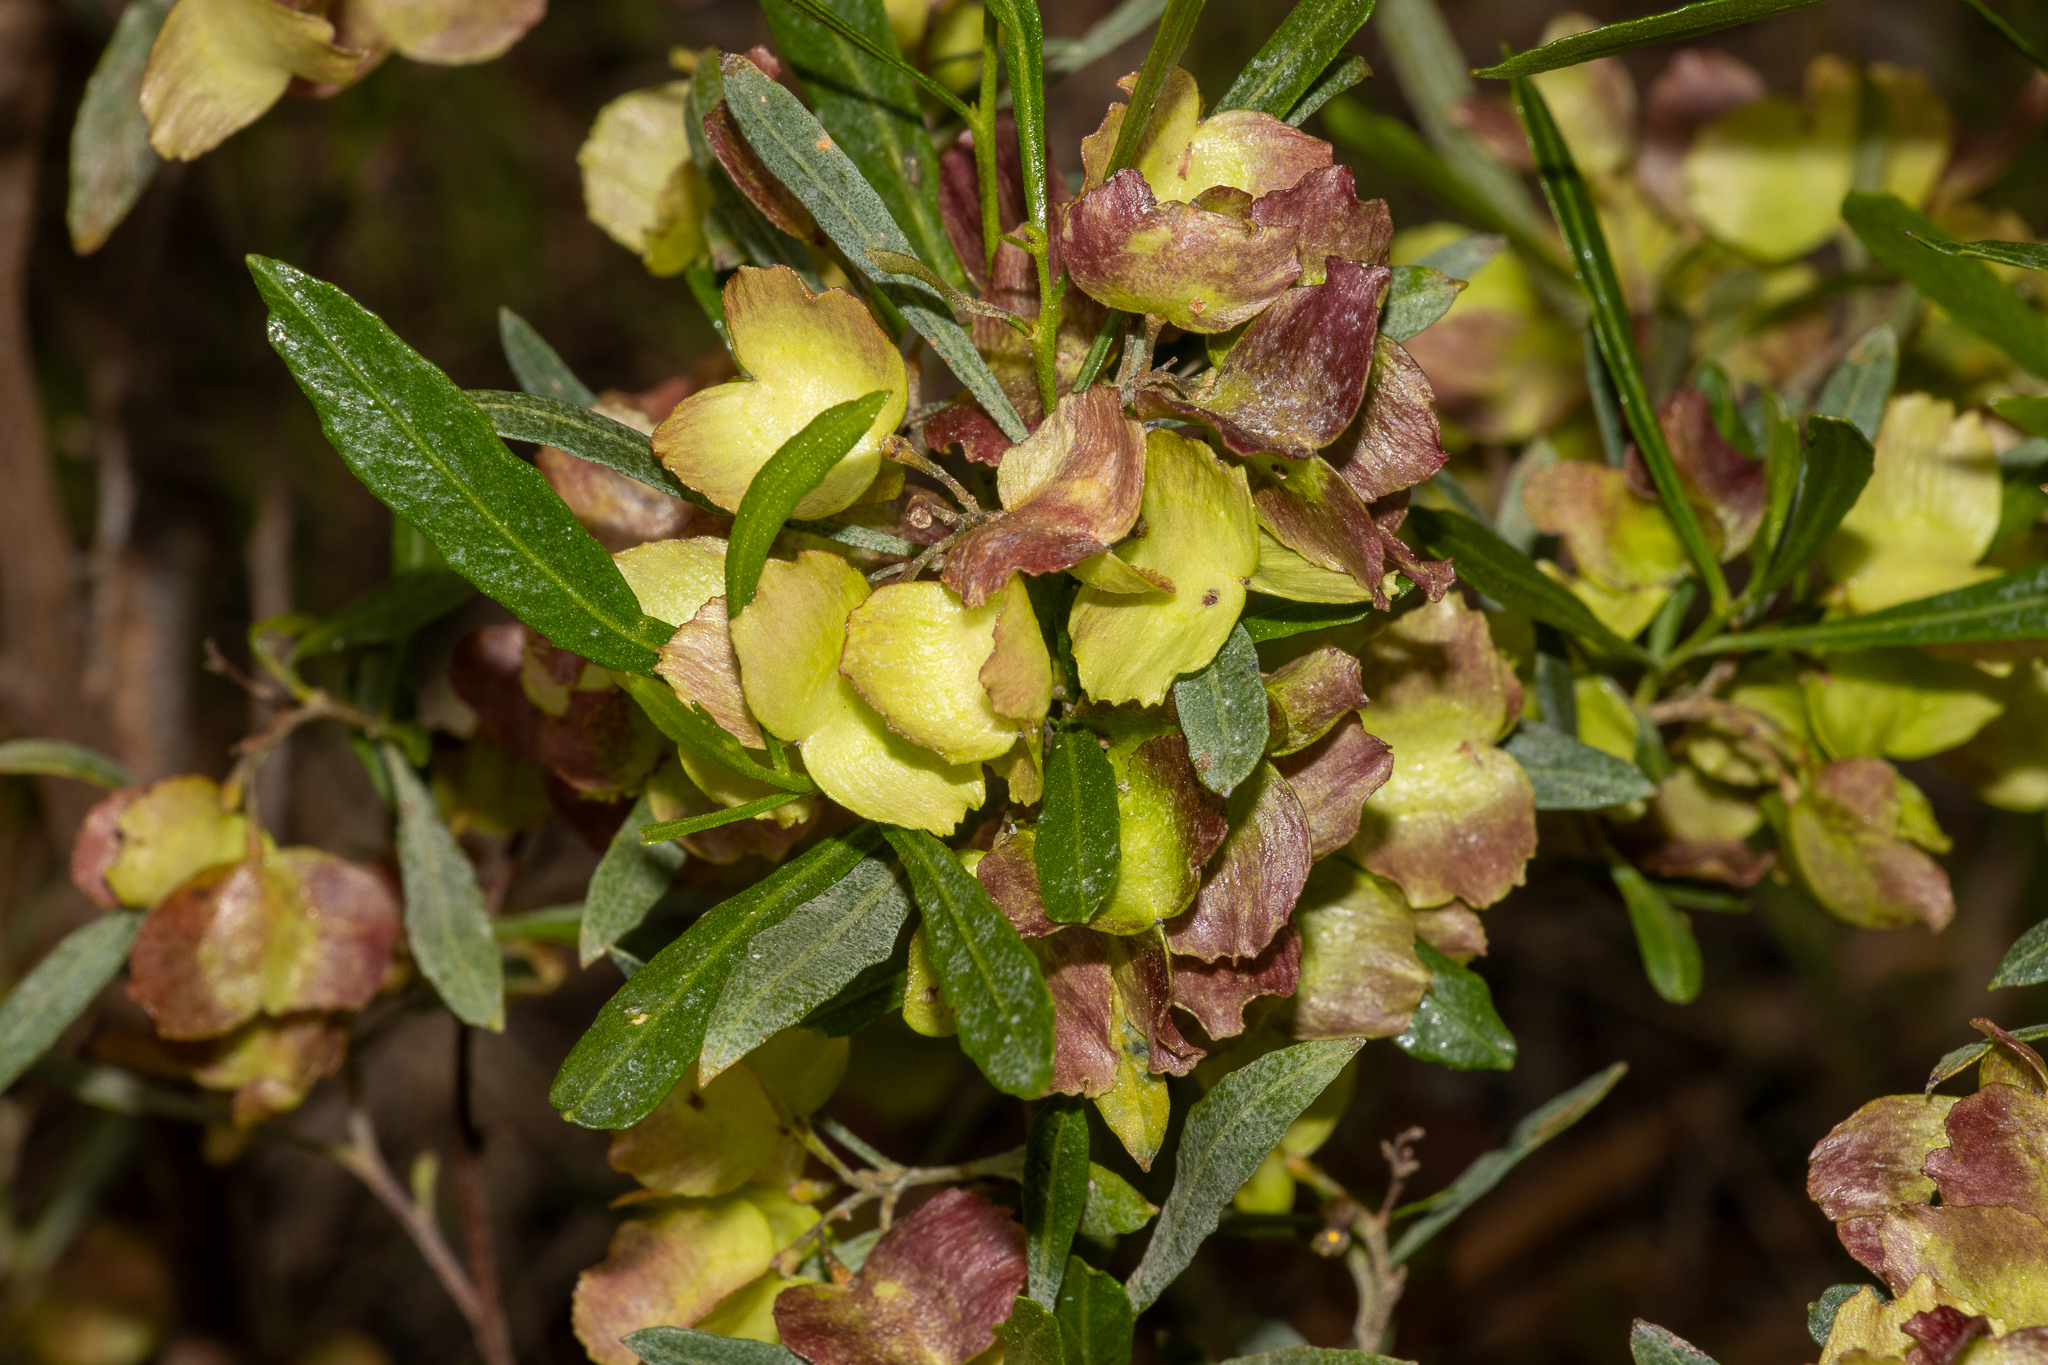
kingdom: Plantae
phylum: Tracheophyta
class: Magnoliopsida
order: Sapindales
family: Sapindaceae
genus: Dodonaea
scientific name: Dodonaea viscosa
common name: Hopbush
